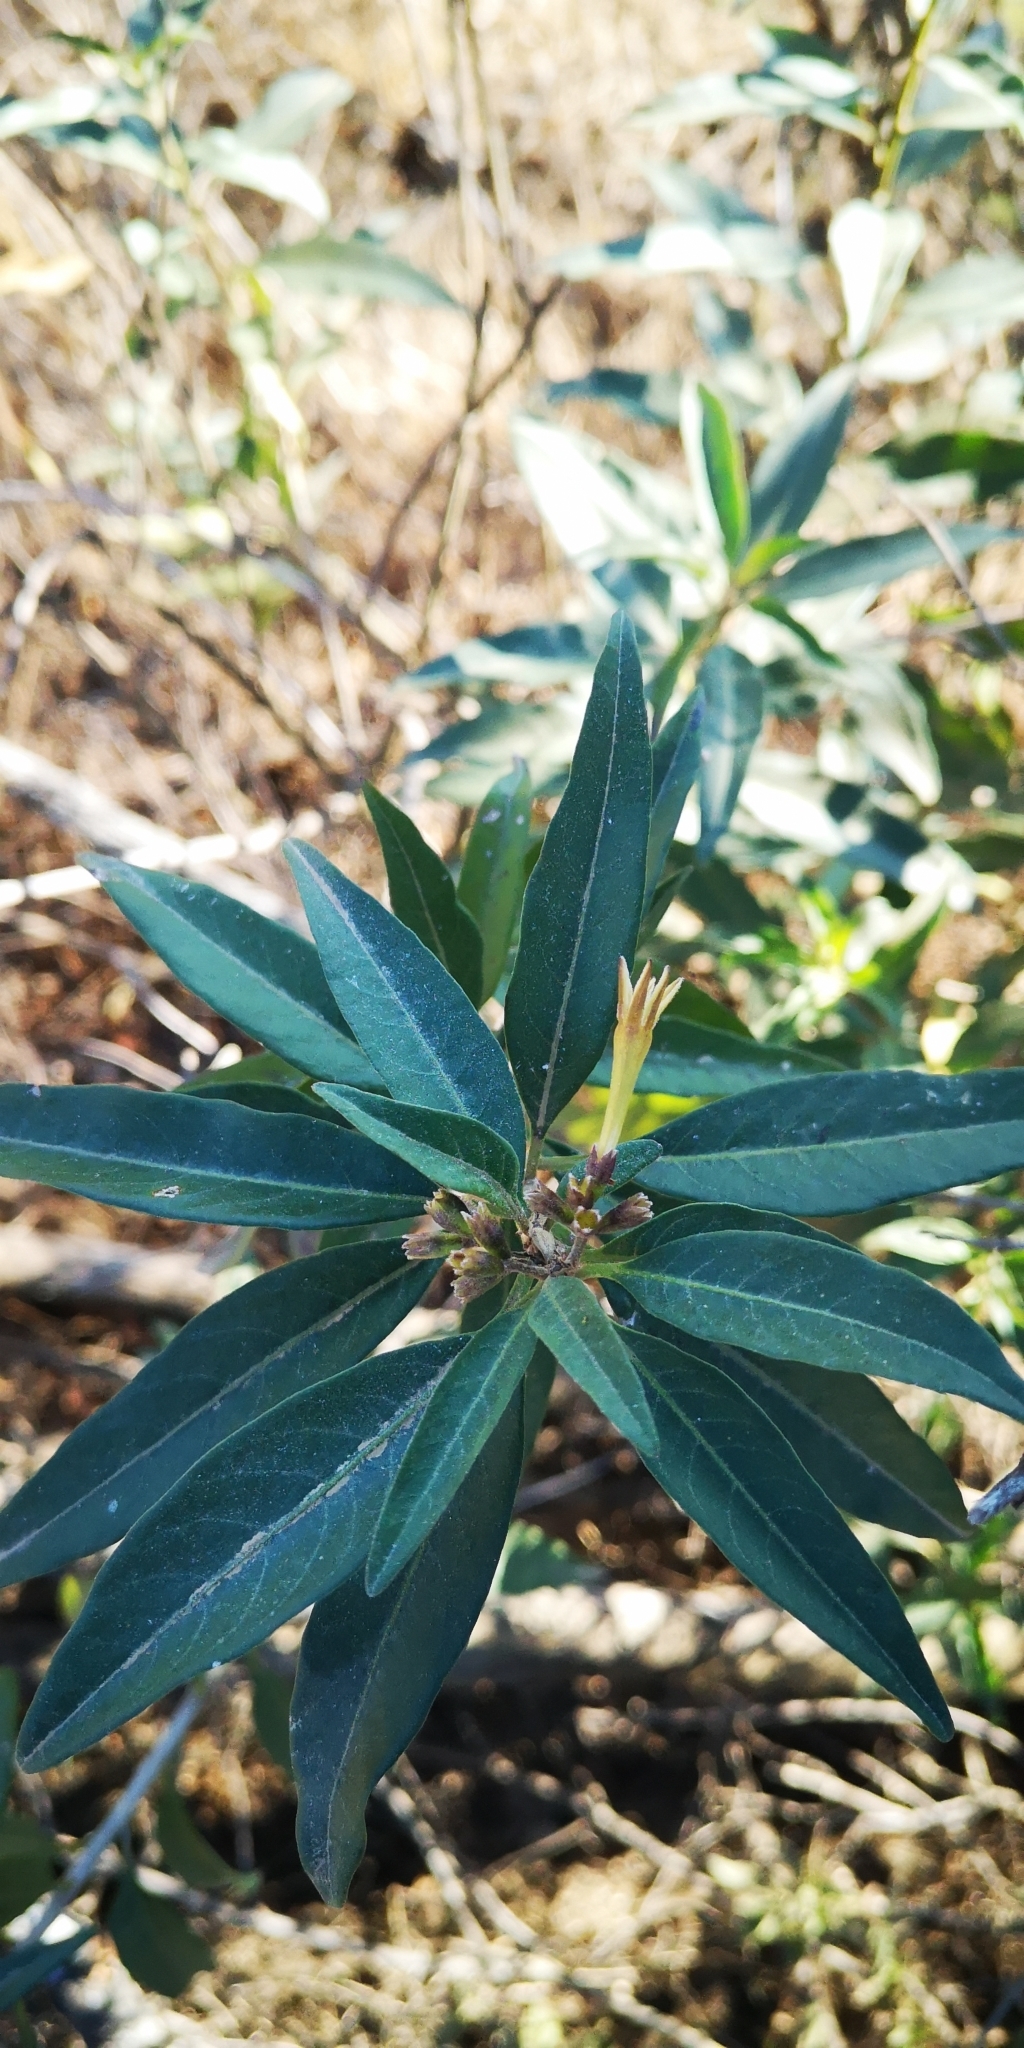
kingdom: Plantae
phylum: Tracheophyta
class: Magnoliopsida
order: Solanales
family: Solanaceae
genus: Cestrum
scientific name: Cestrum parqui
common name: Chilean cestrum
